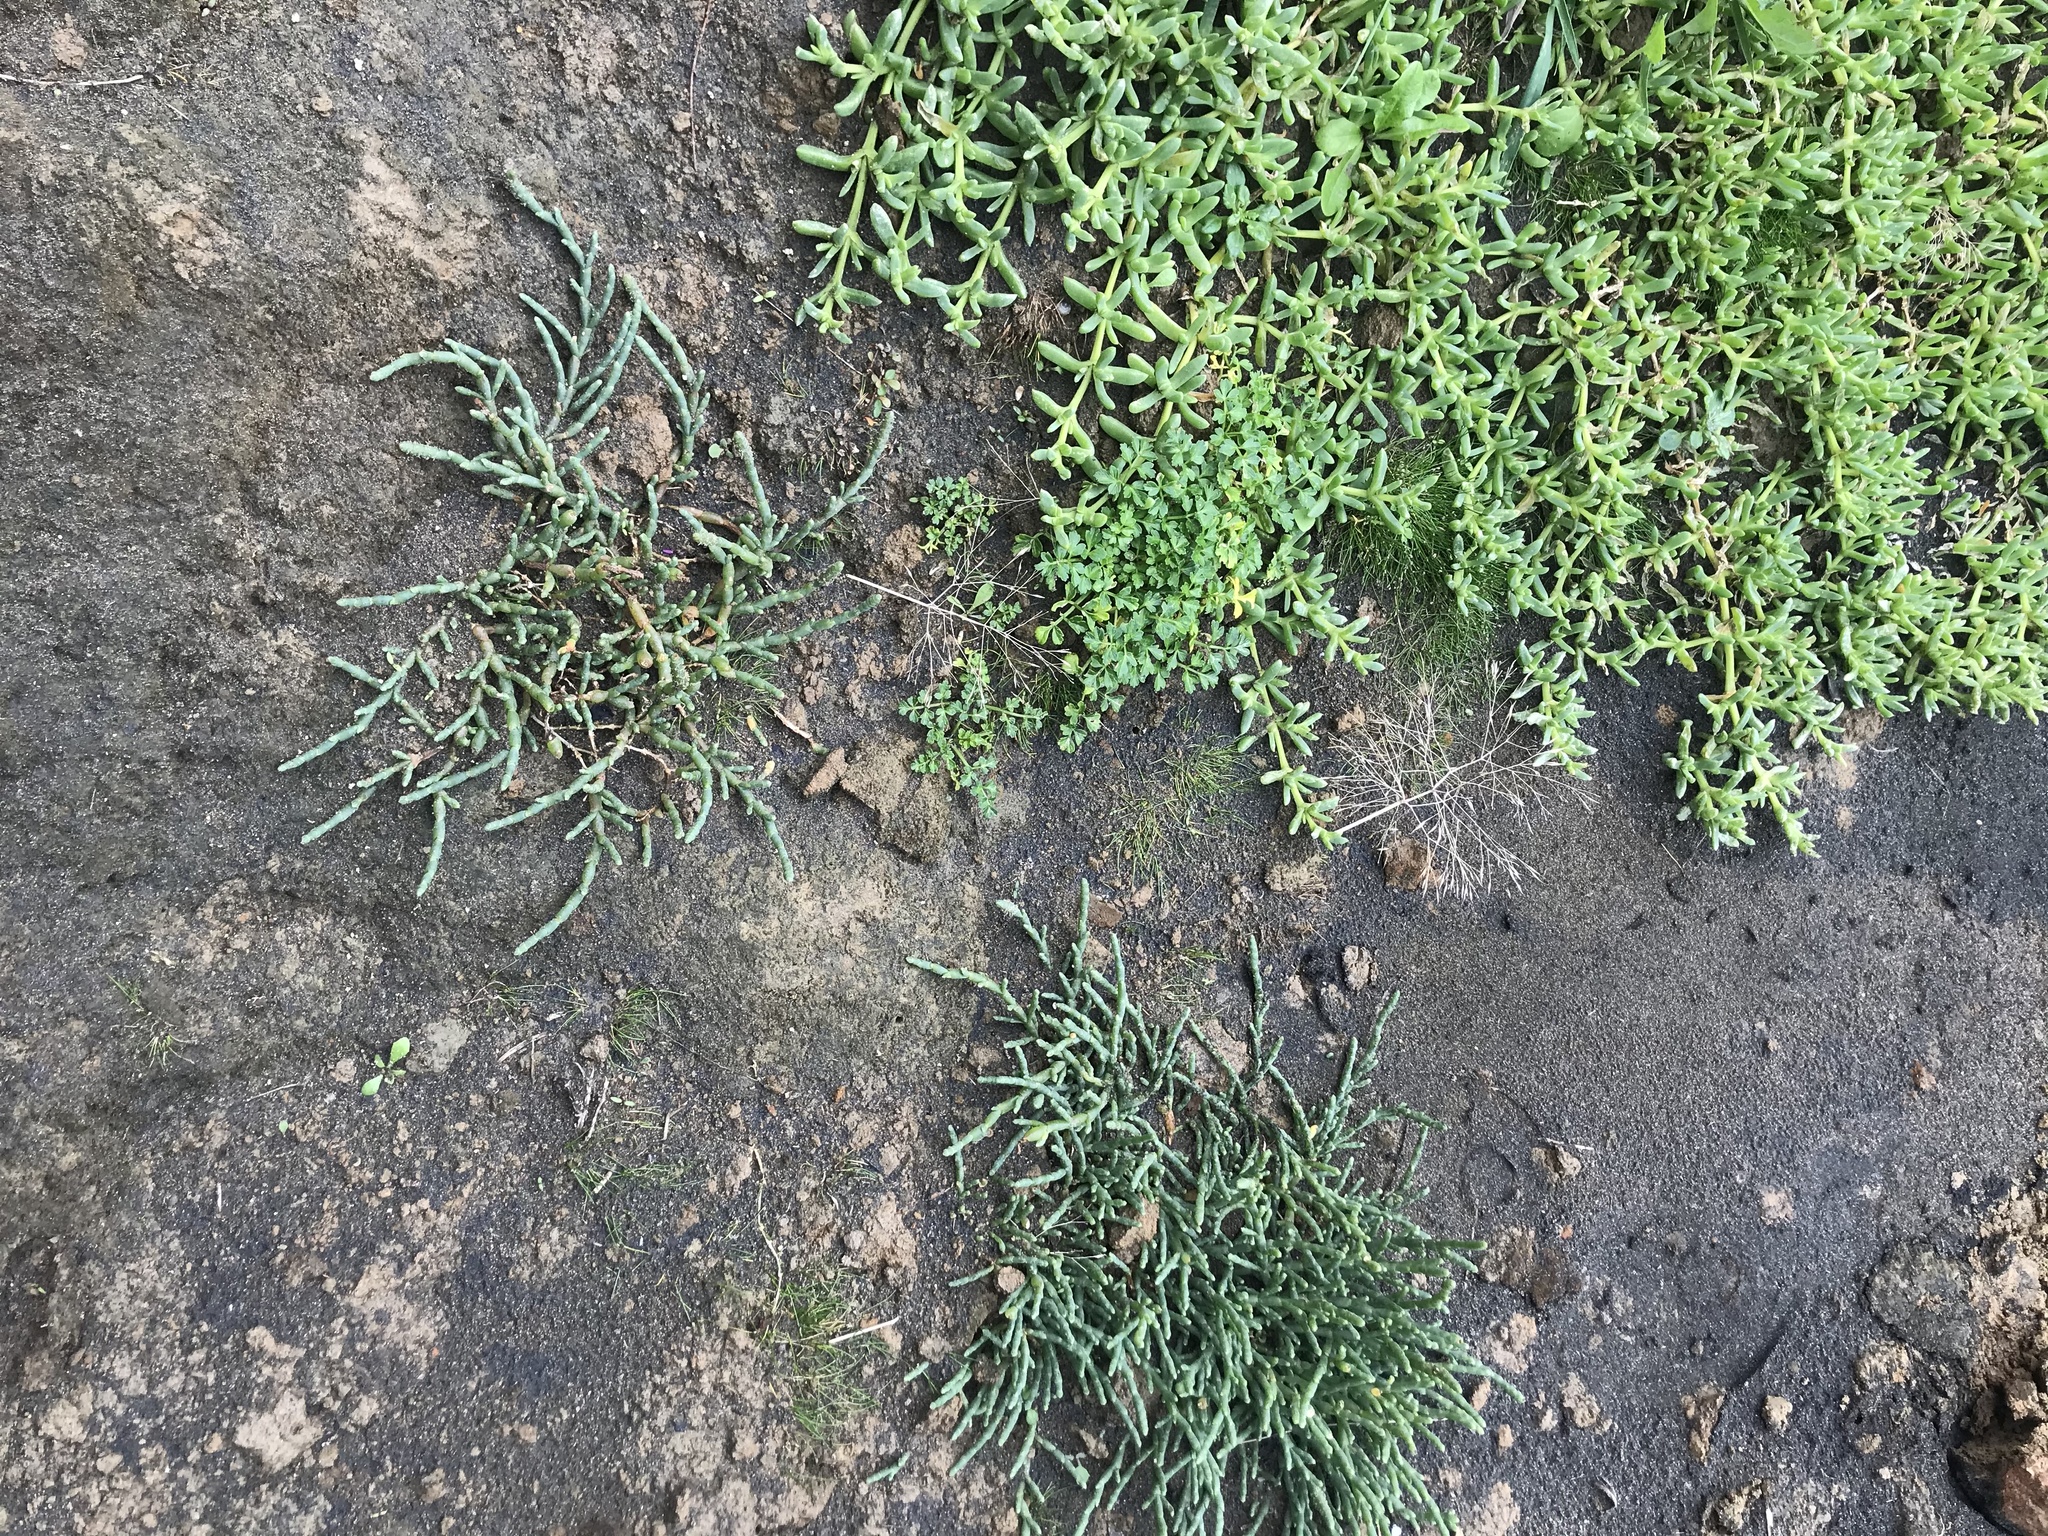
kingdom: Plantae
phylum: Tracheophyta
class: Magnoliopsida
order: Caryophyllales
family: Amaranthaceae
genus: Salicornia
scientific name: Salicornia quinqueflora
